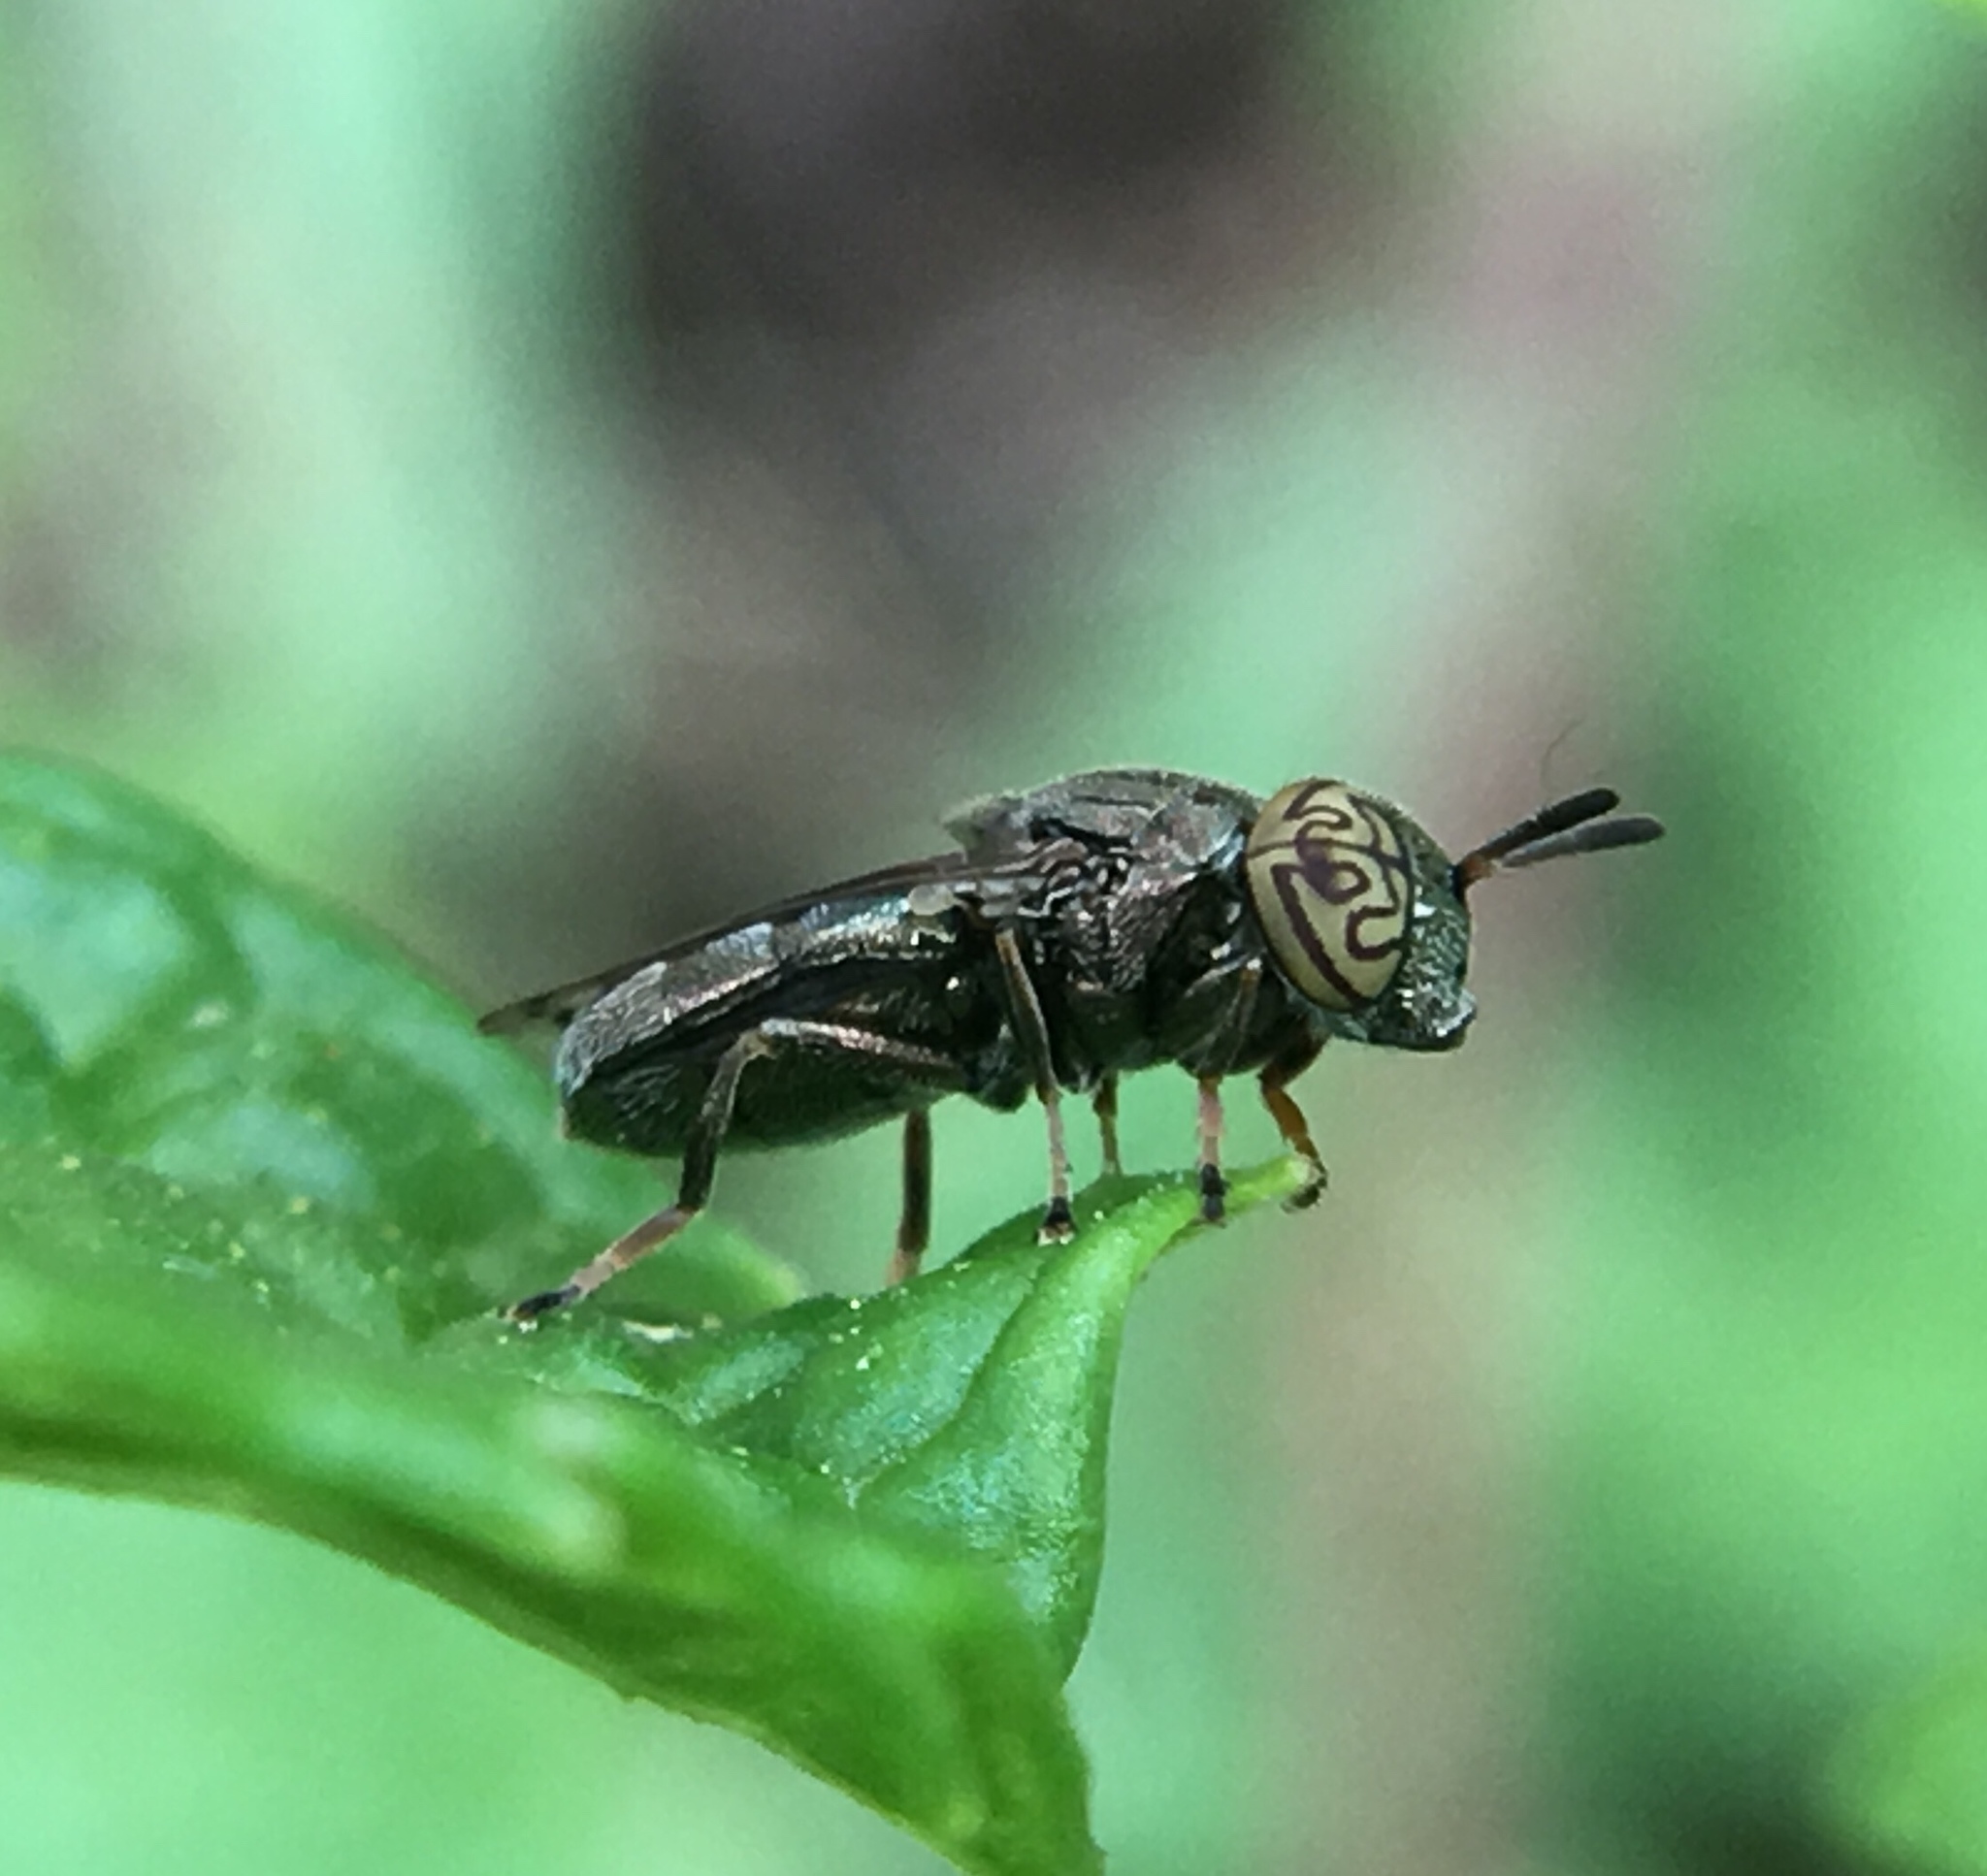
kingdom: Animalia
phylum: Arthropoda
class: Insecta
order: Diptera
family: Syrphidae
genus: Orthonevra
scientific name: Orthonevra nitida
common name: Wavy mucksucker
